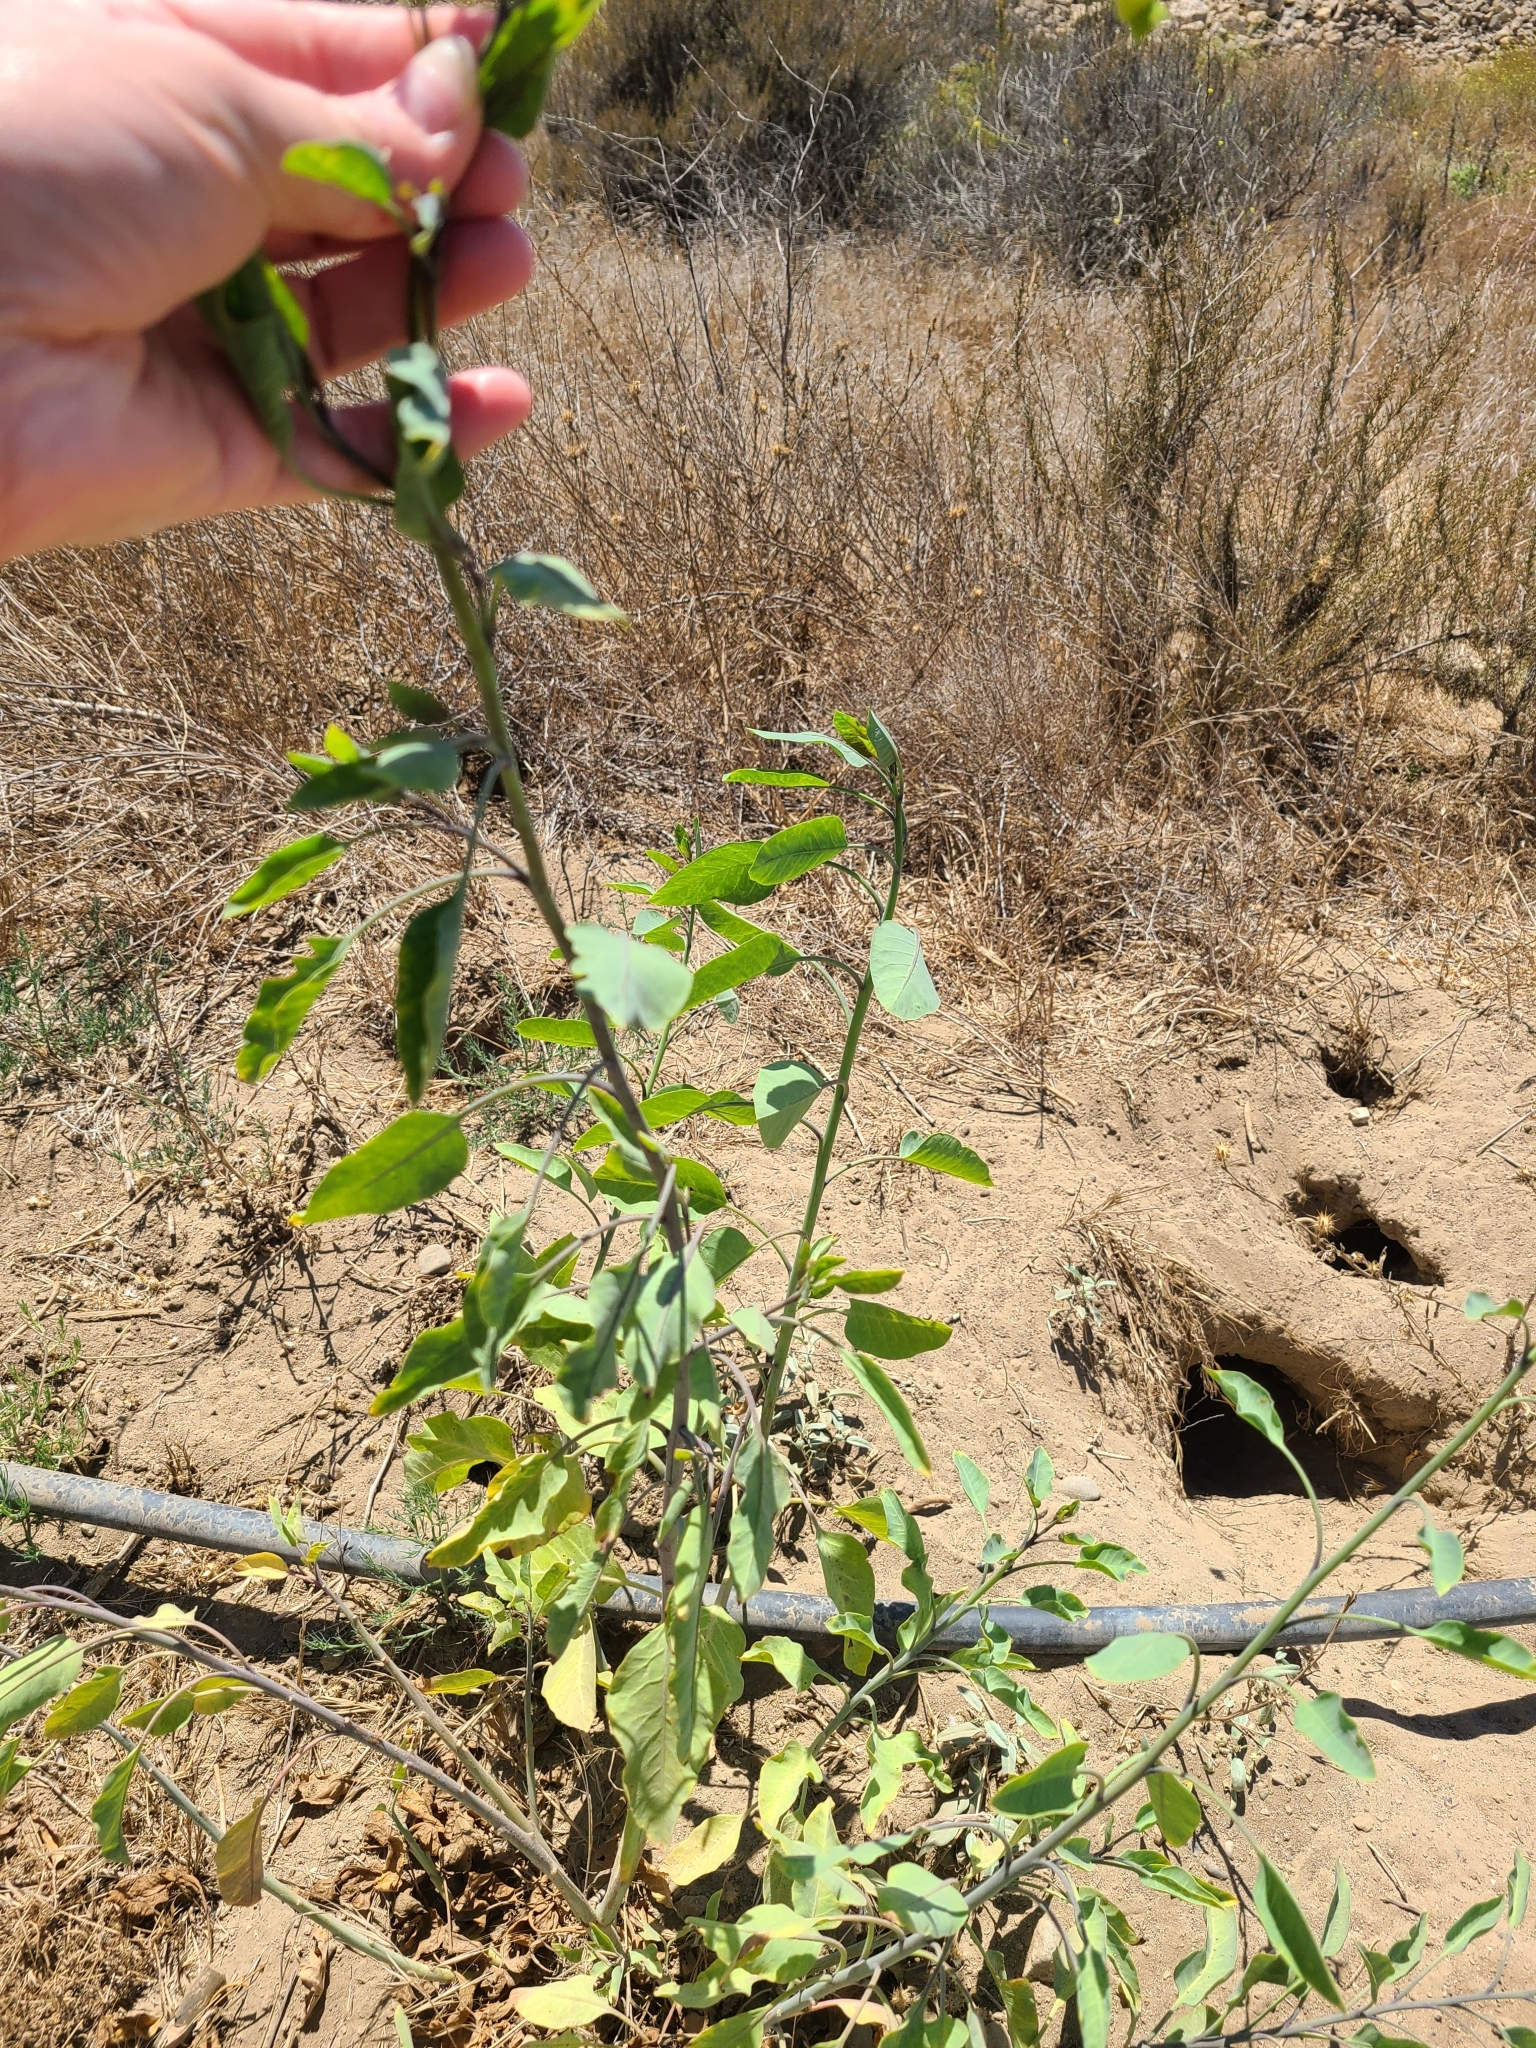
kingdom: Plantae
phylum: Tracheophyta
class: Magnoliopsida
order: Solanales
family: Solanaceae
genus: Nicotiana
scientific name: Nicotiana glauca
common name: Tree tobacco
